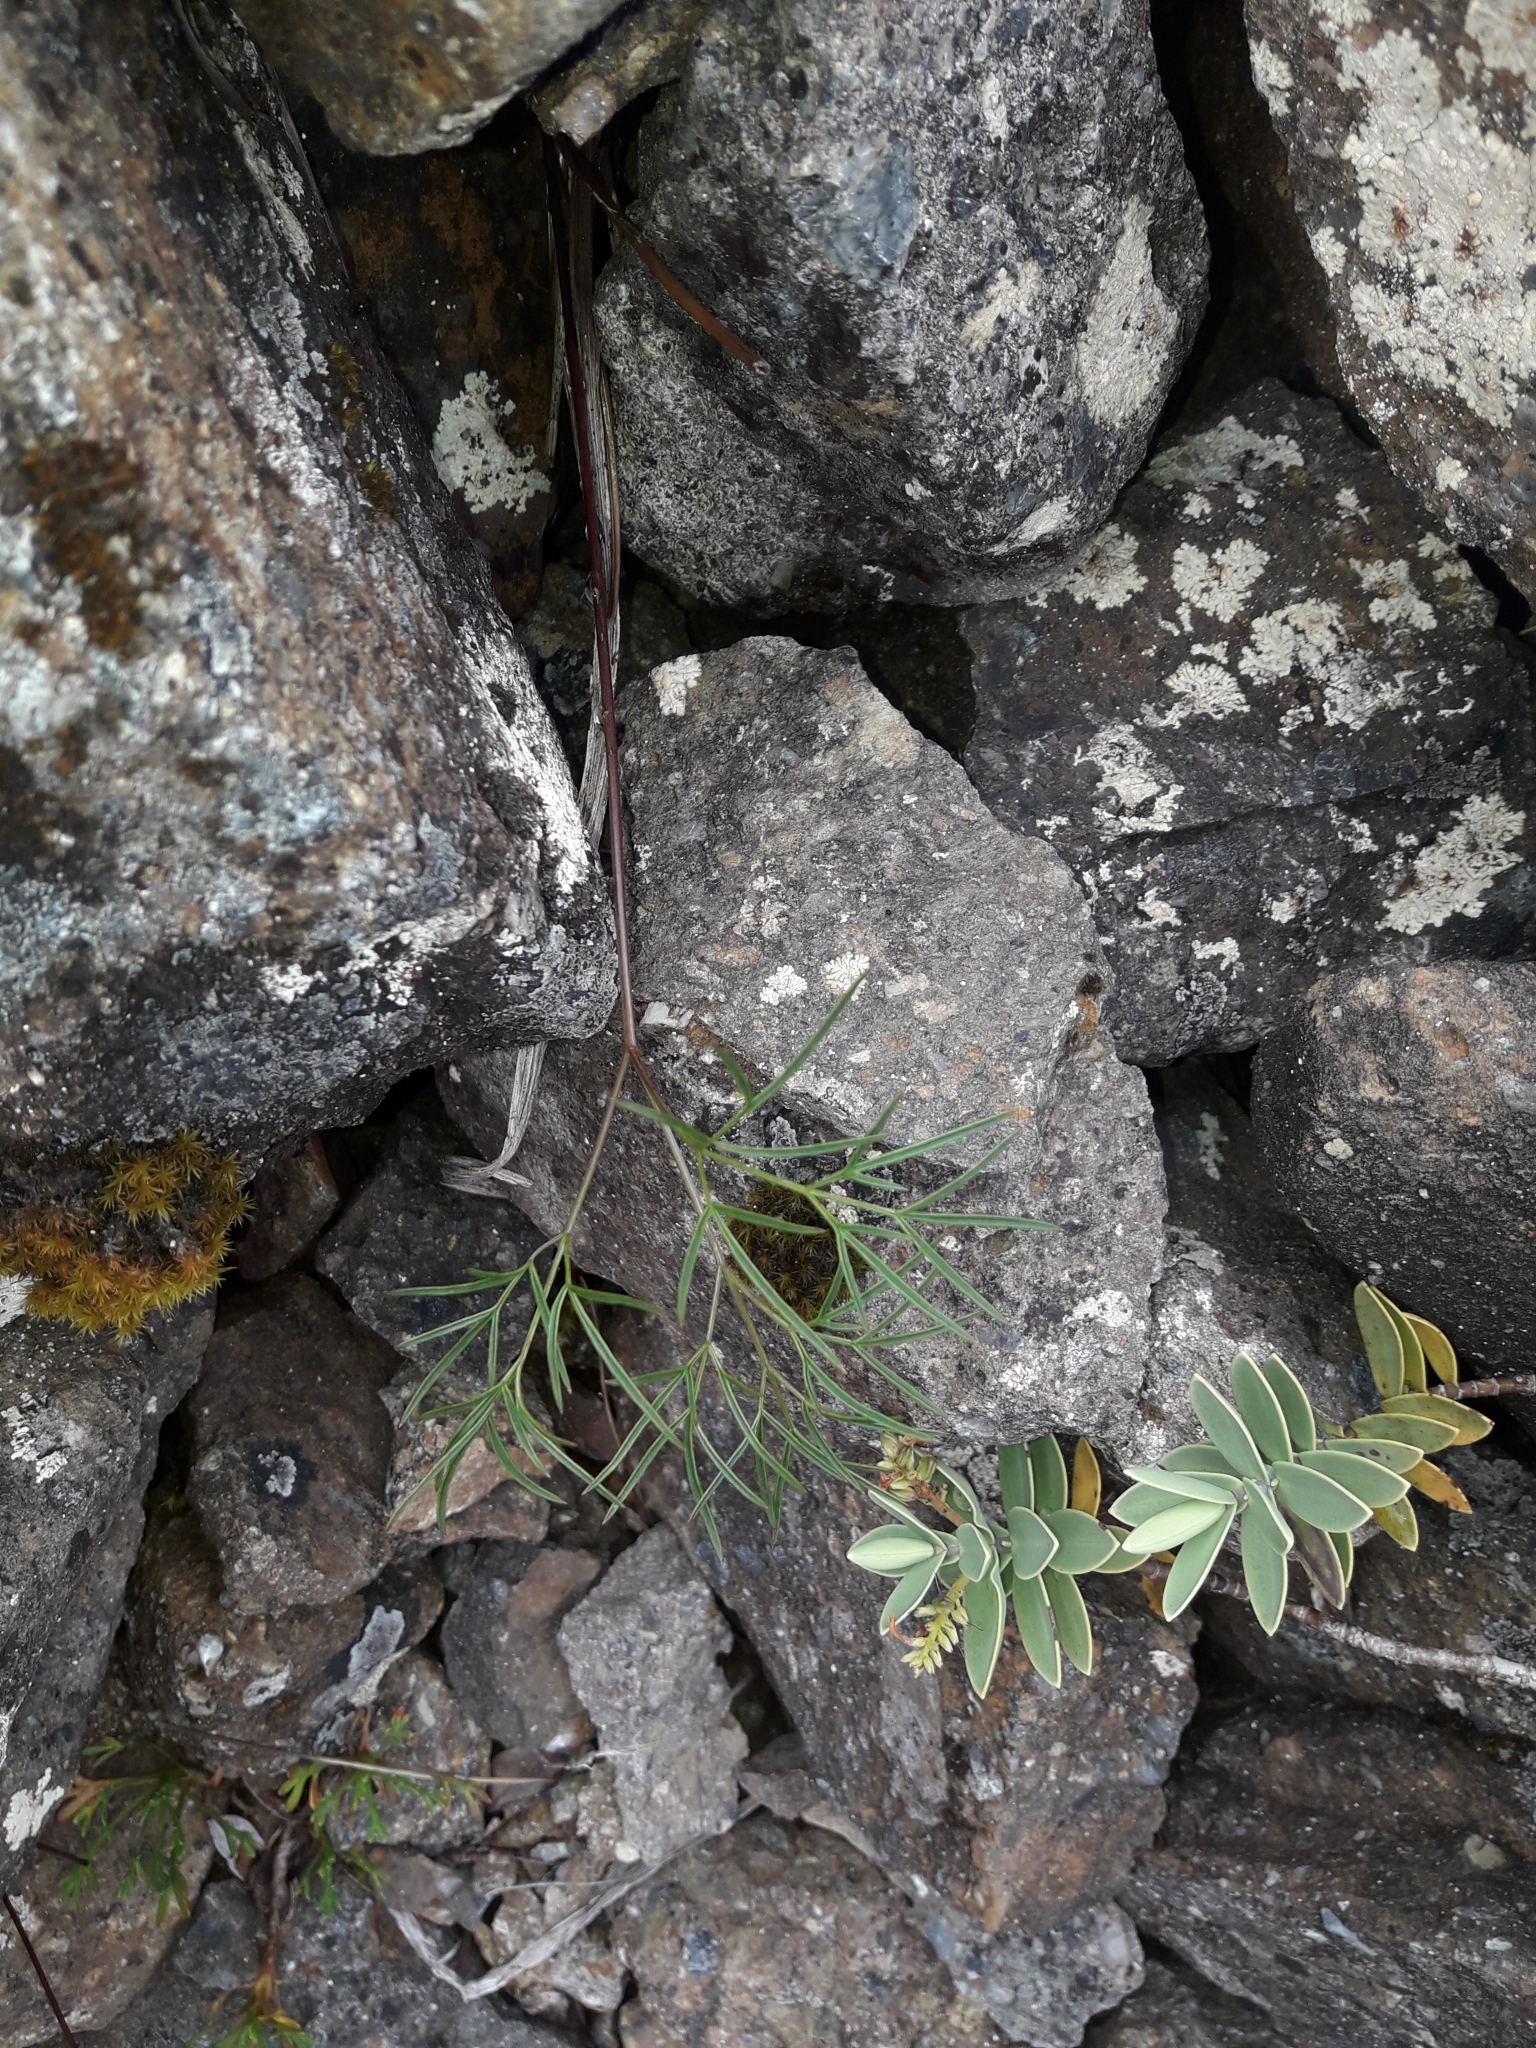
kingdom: Plantae
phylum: Tracheophyta
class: Magnoliopsida
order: Apiales
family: Apiaceae
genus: Anisotome
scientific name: Anisotome filifolia
